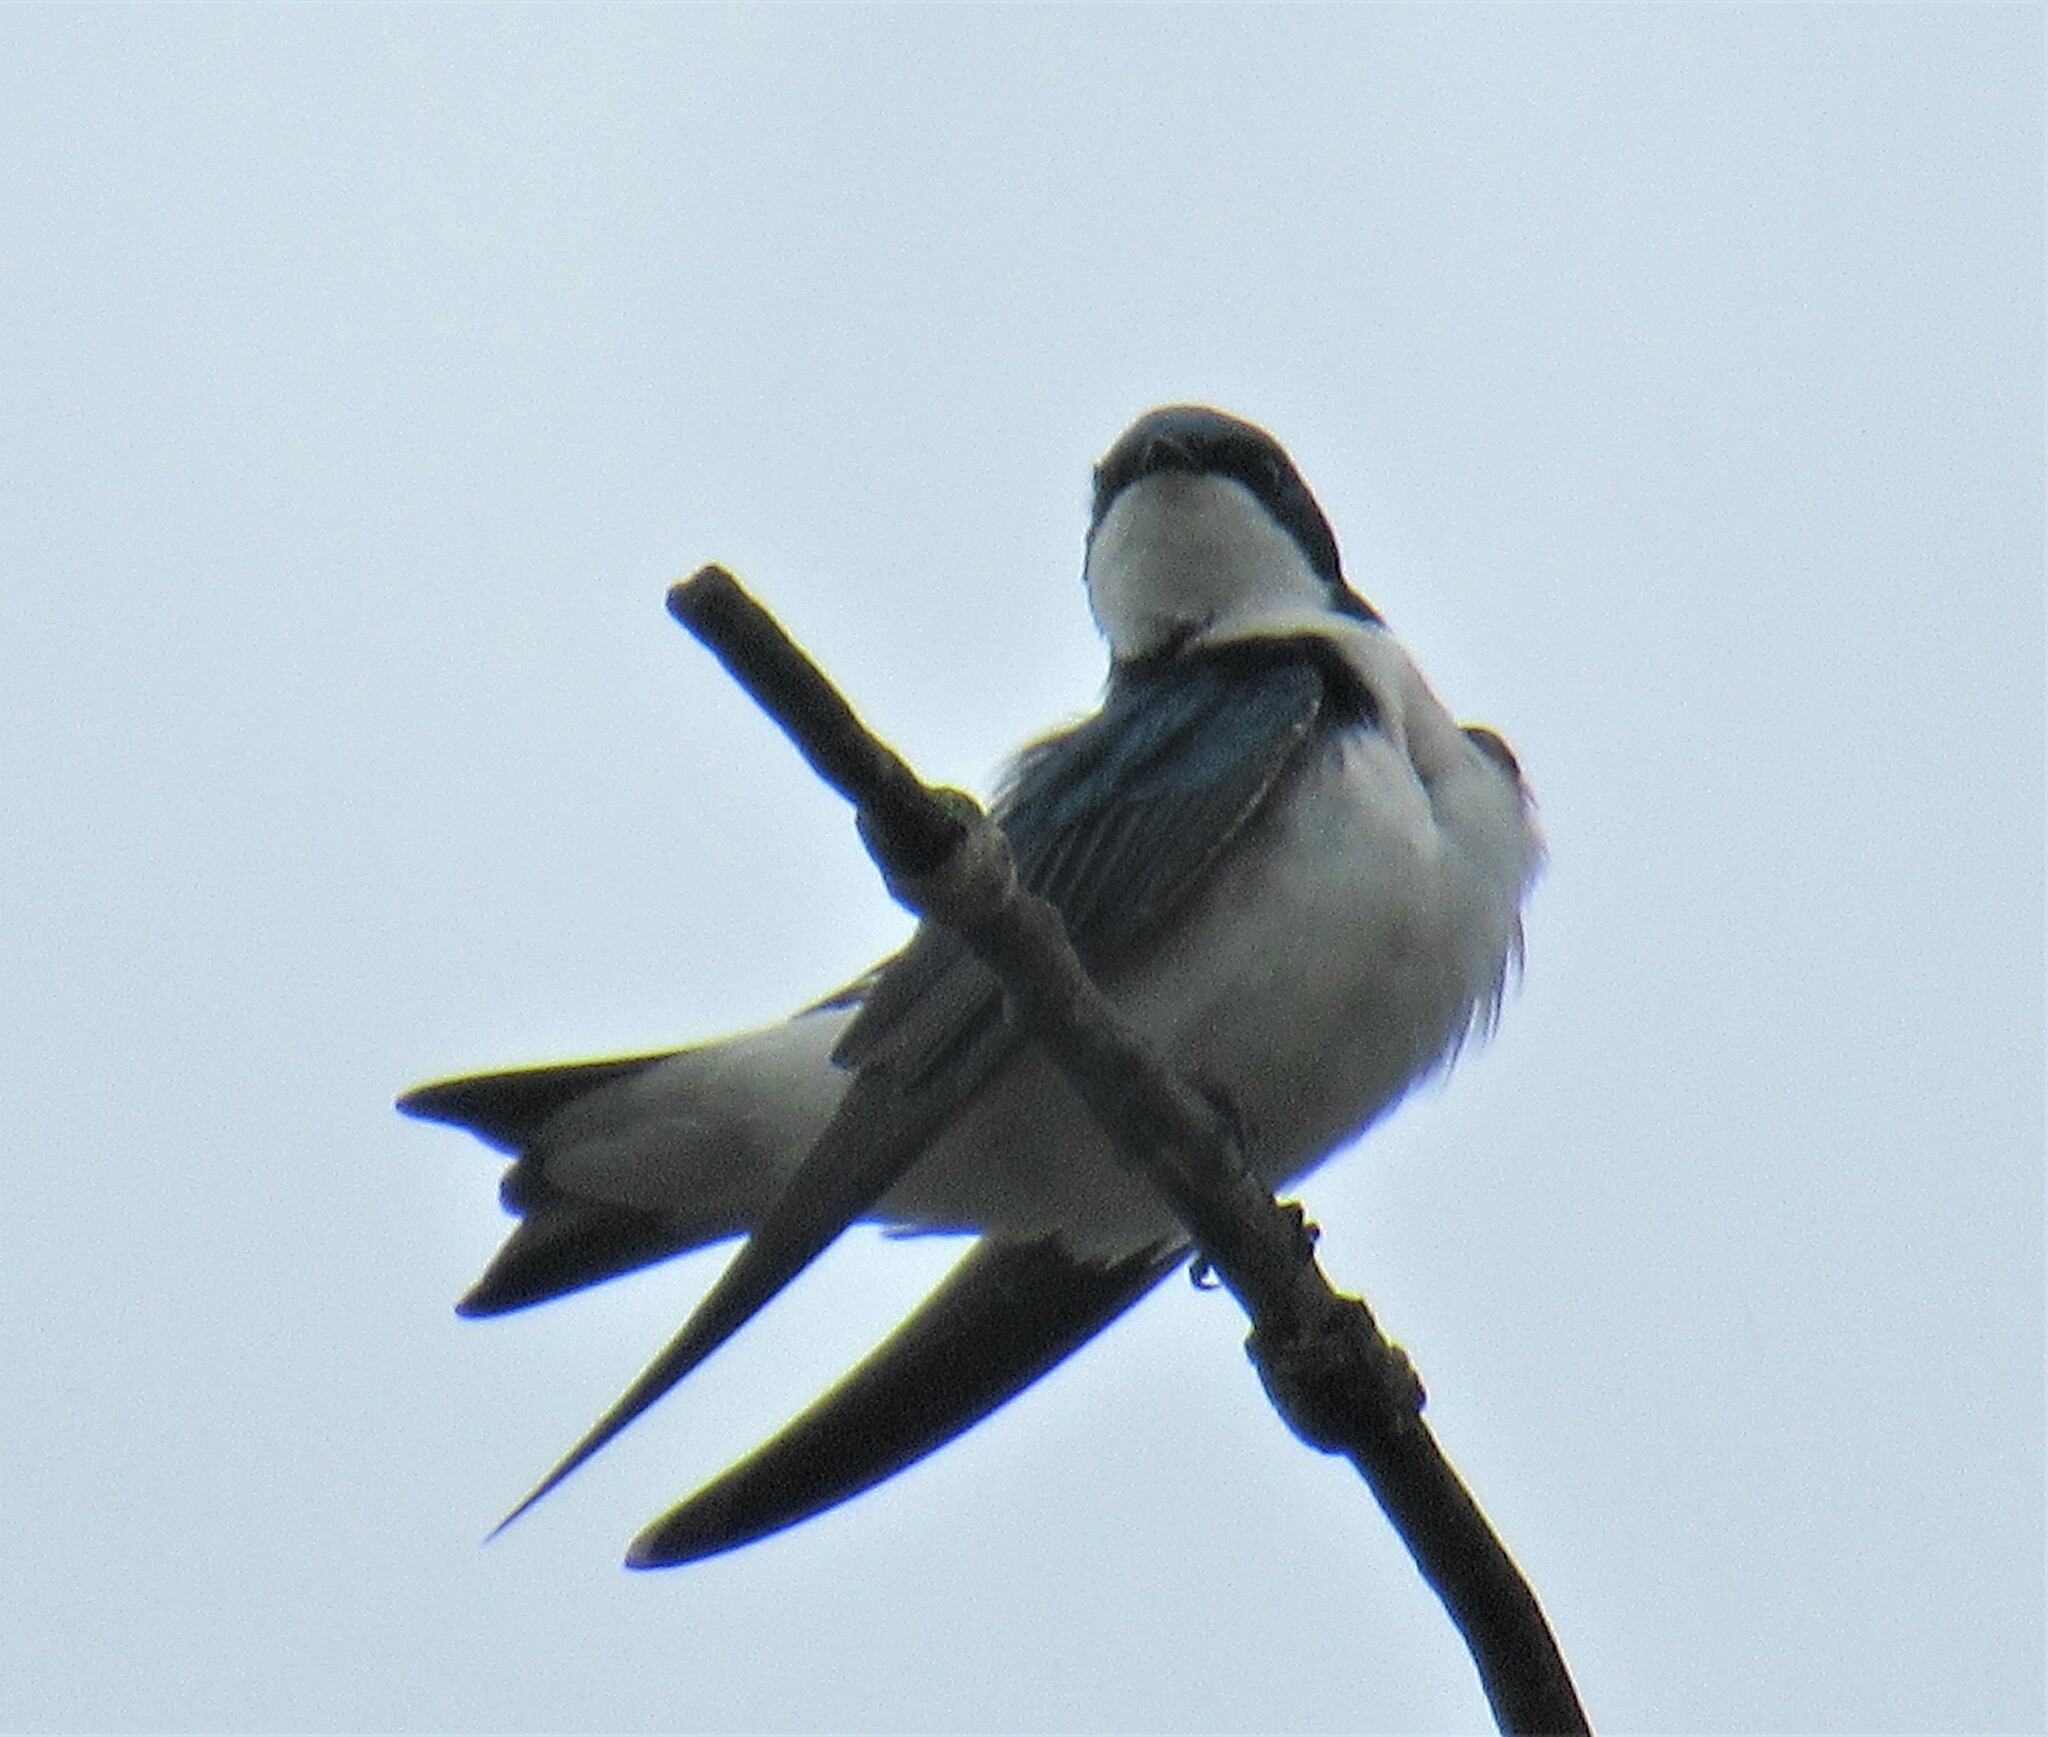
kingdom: Animalia
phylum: Chordata
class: Aves
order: Passeriformes
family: Hirundinidae
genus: Tachycineta
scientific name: Tachycineta bicolor
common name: Tree swallow
